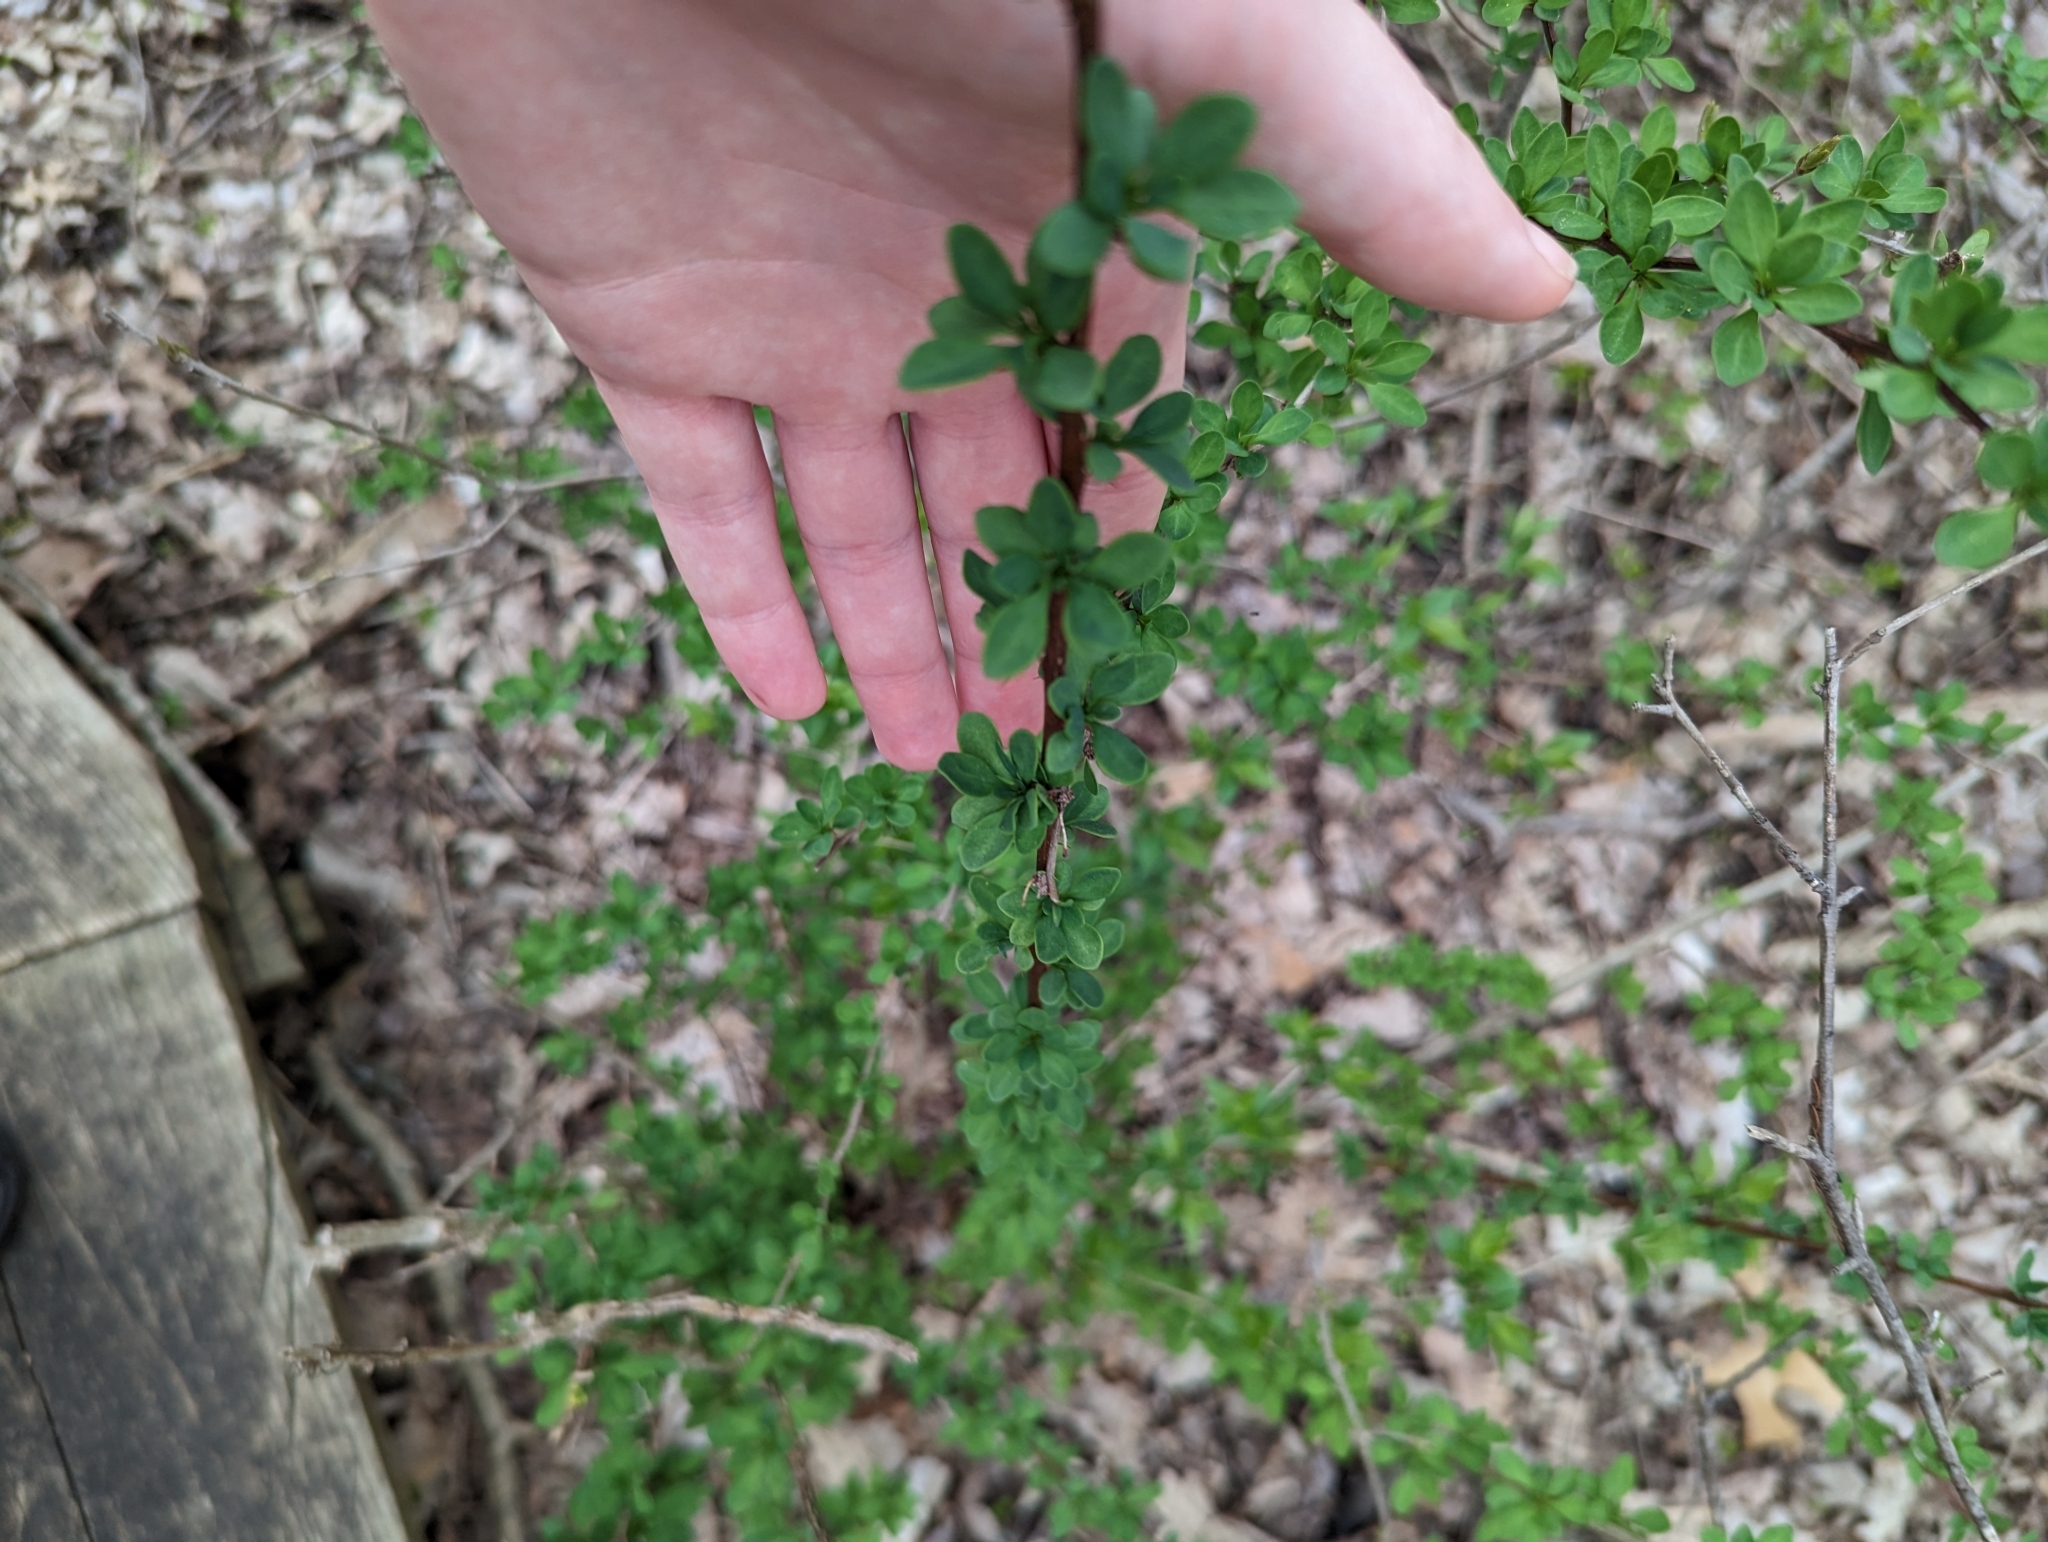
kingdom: Plantae
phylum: Tracheophyta
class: Magnoliopsida
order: Ranunculales
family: Berberidaceae
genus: Berberis
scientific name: Berberis thunbergii
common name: Japanese barberry
